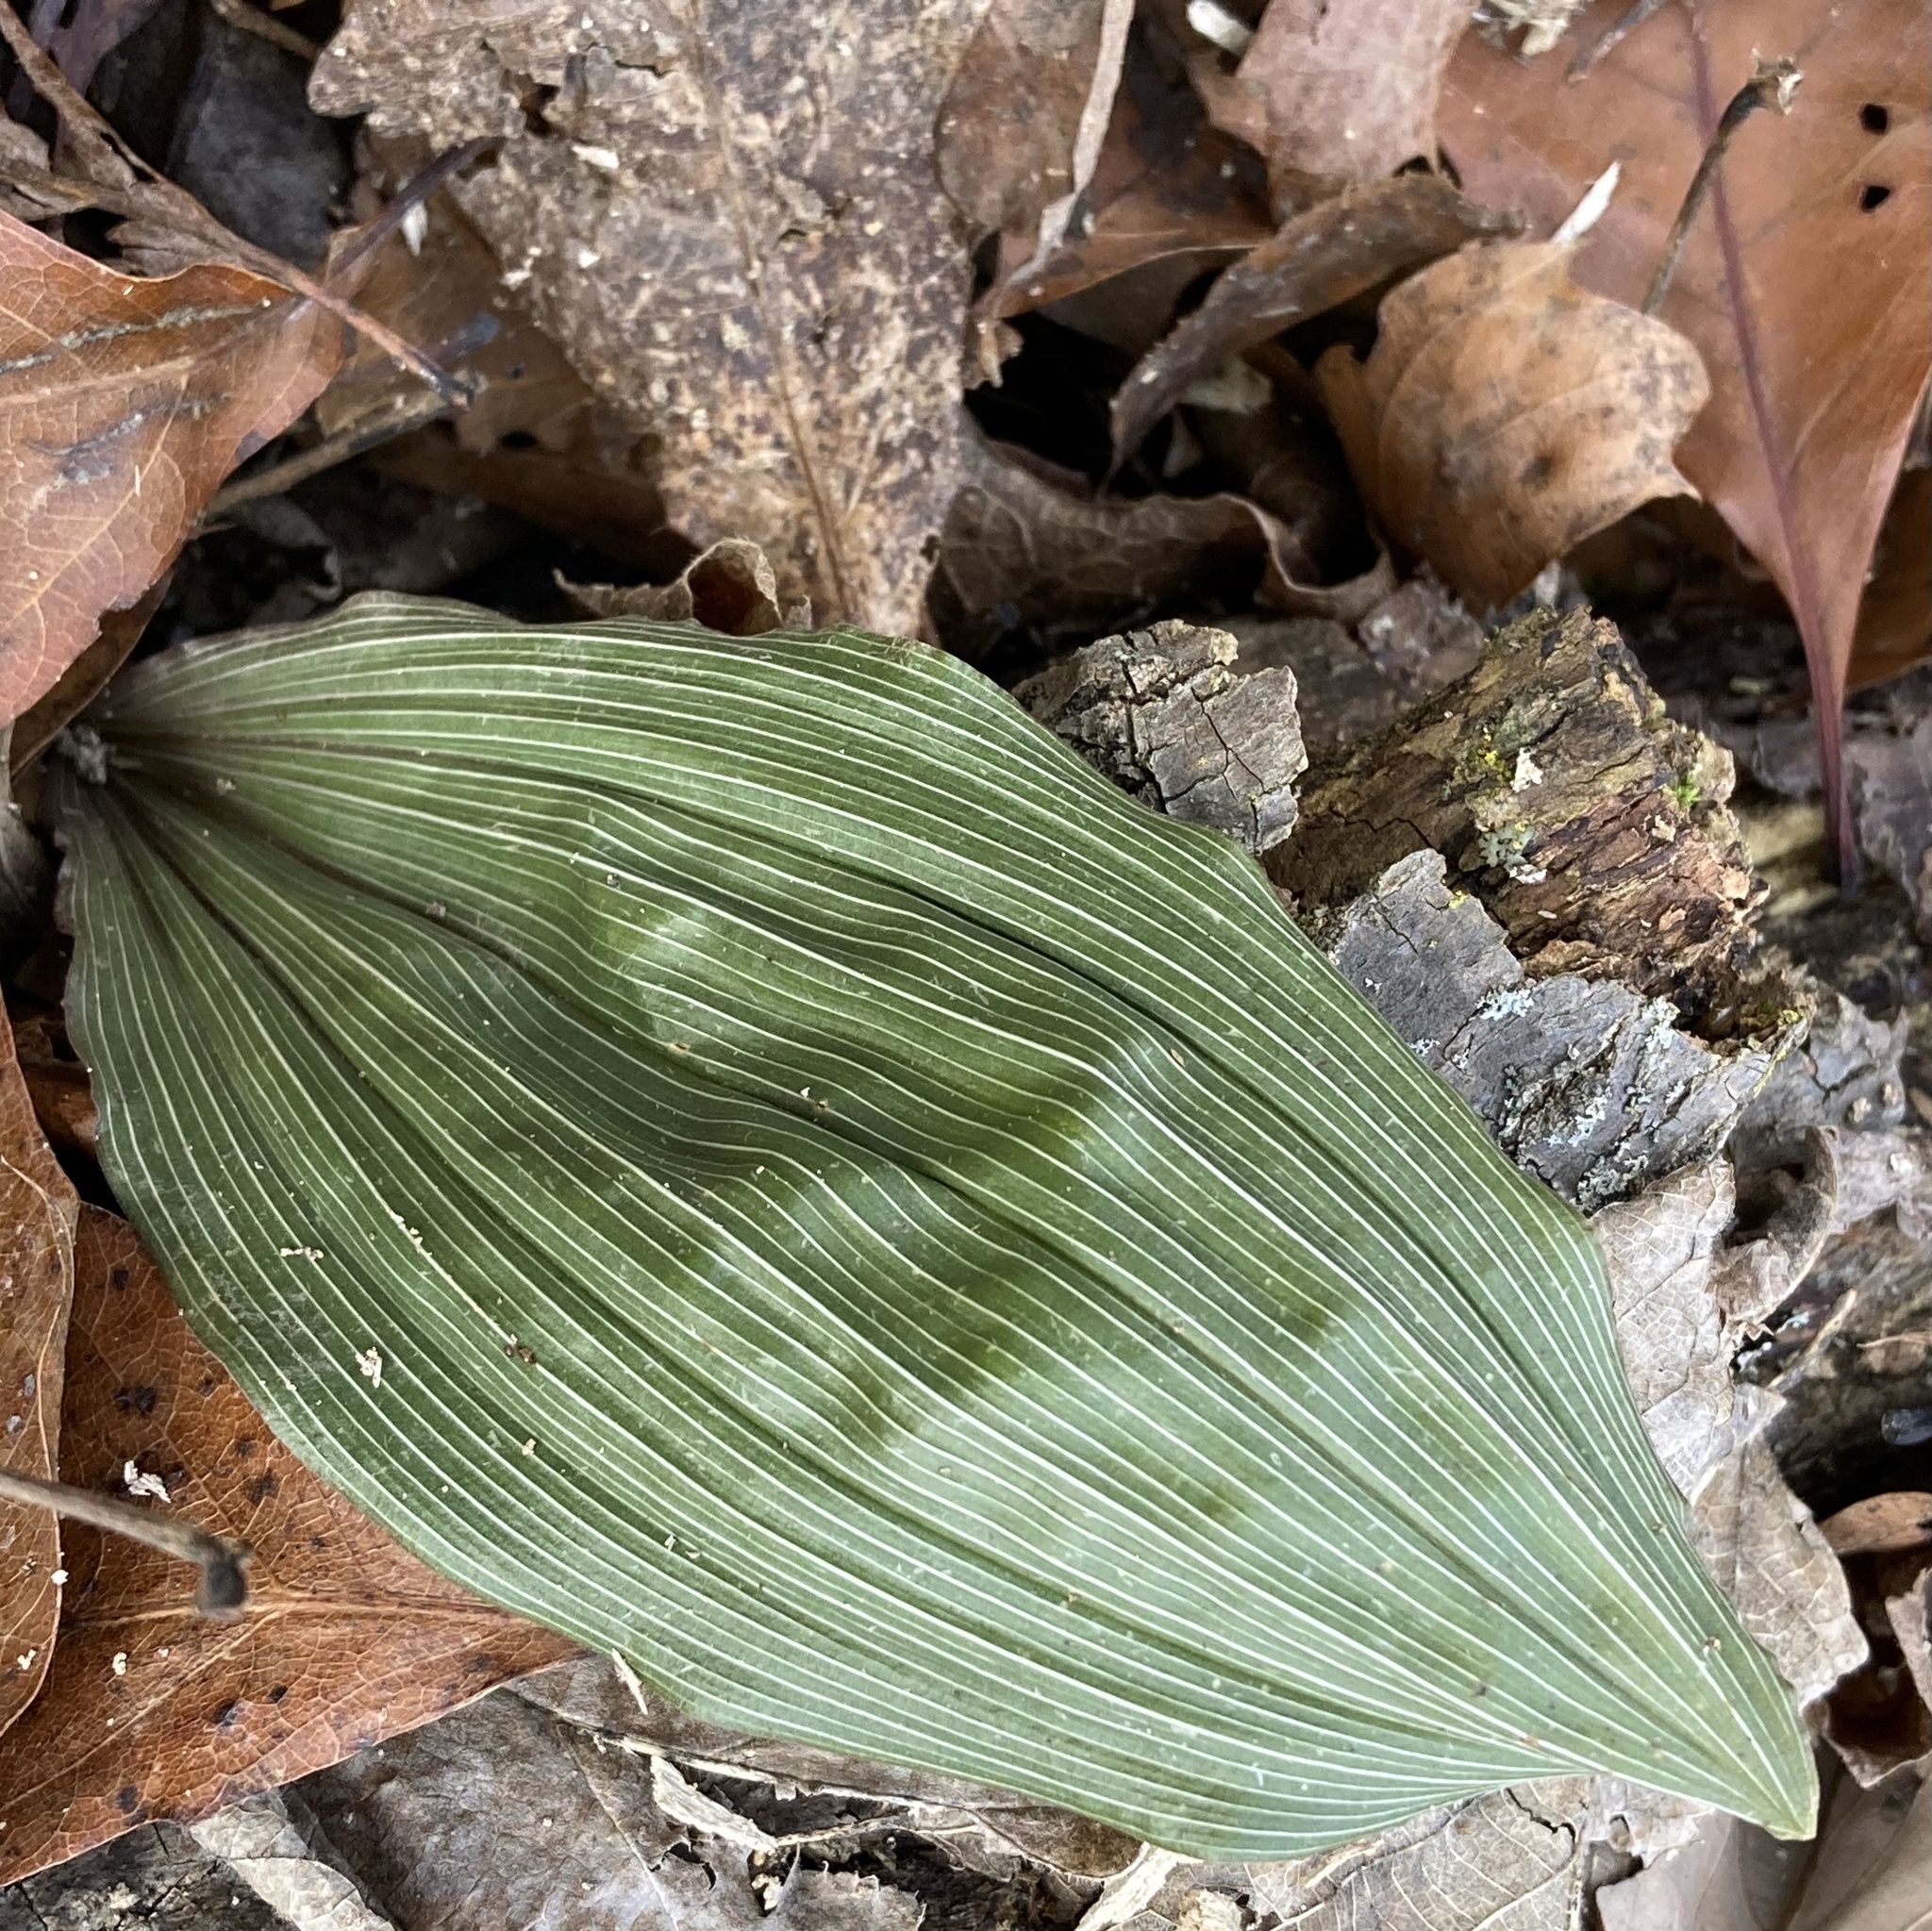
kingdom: Plantae
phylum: Tracheophyta
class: Liliopsida
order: Asparagales
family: Orchidaceae
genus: Aplectrum
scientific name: Aplectrum hyemale
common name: Adam-and-eve
